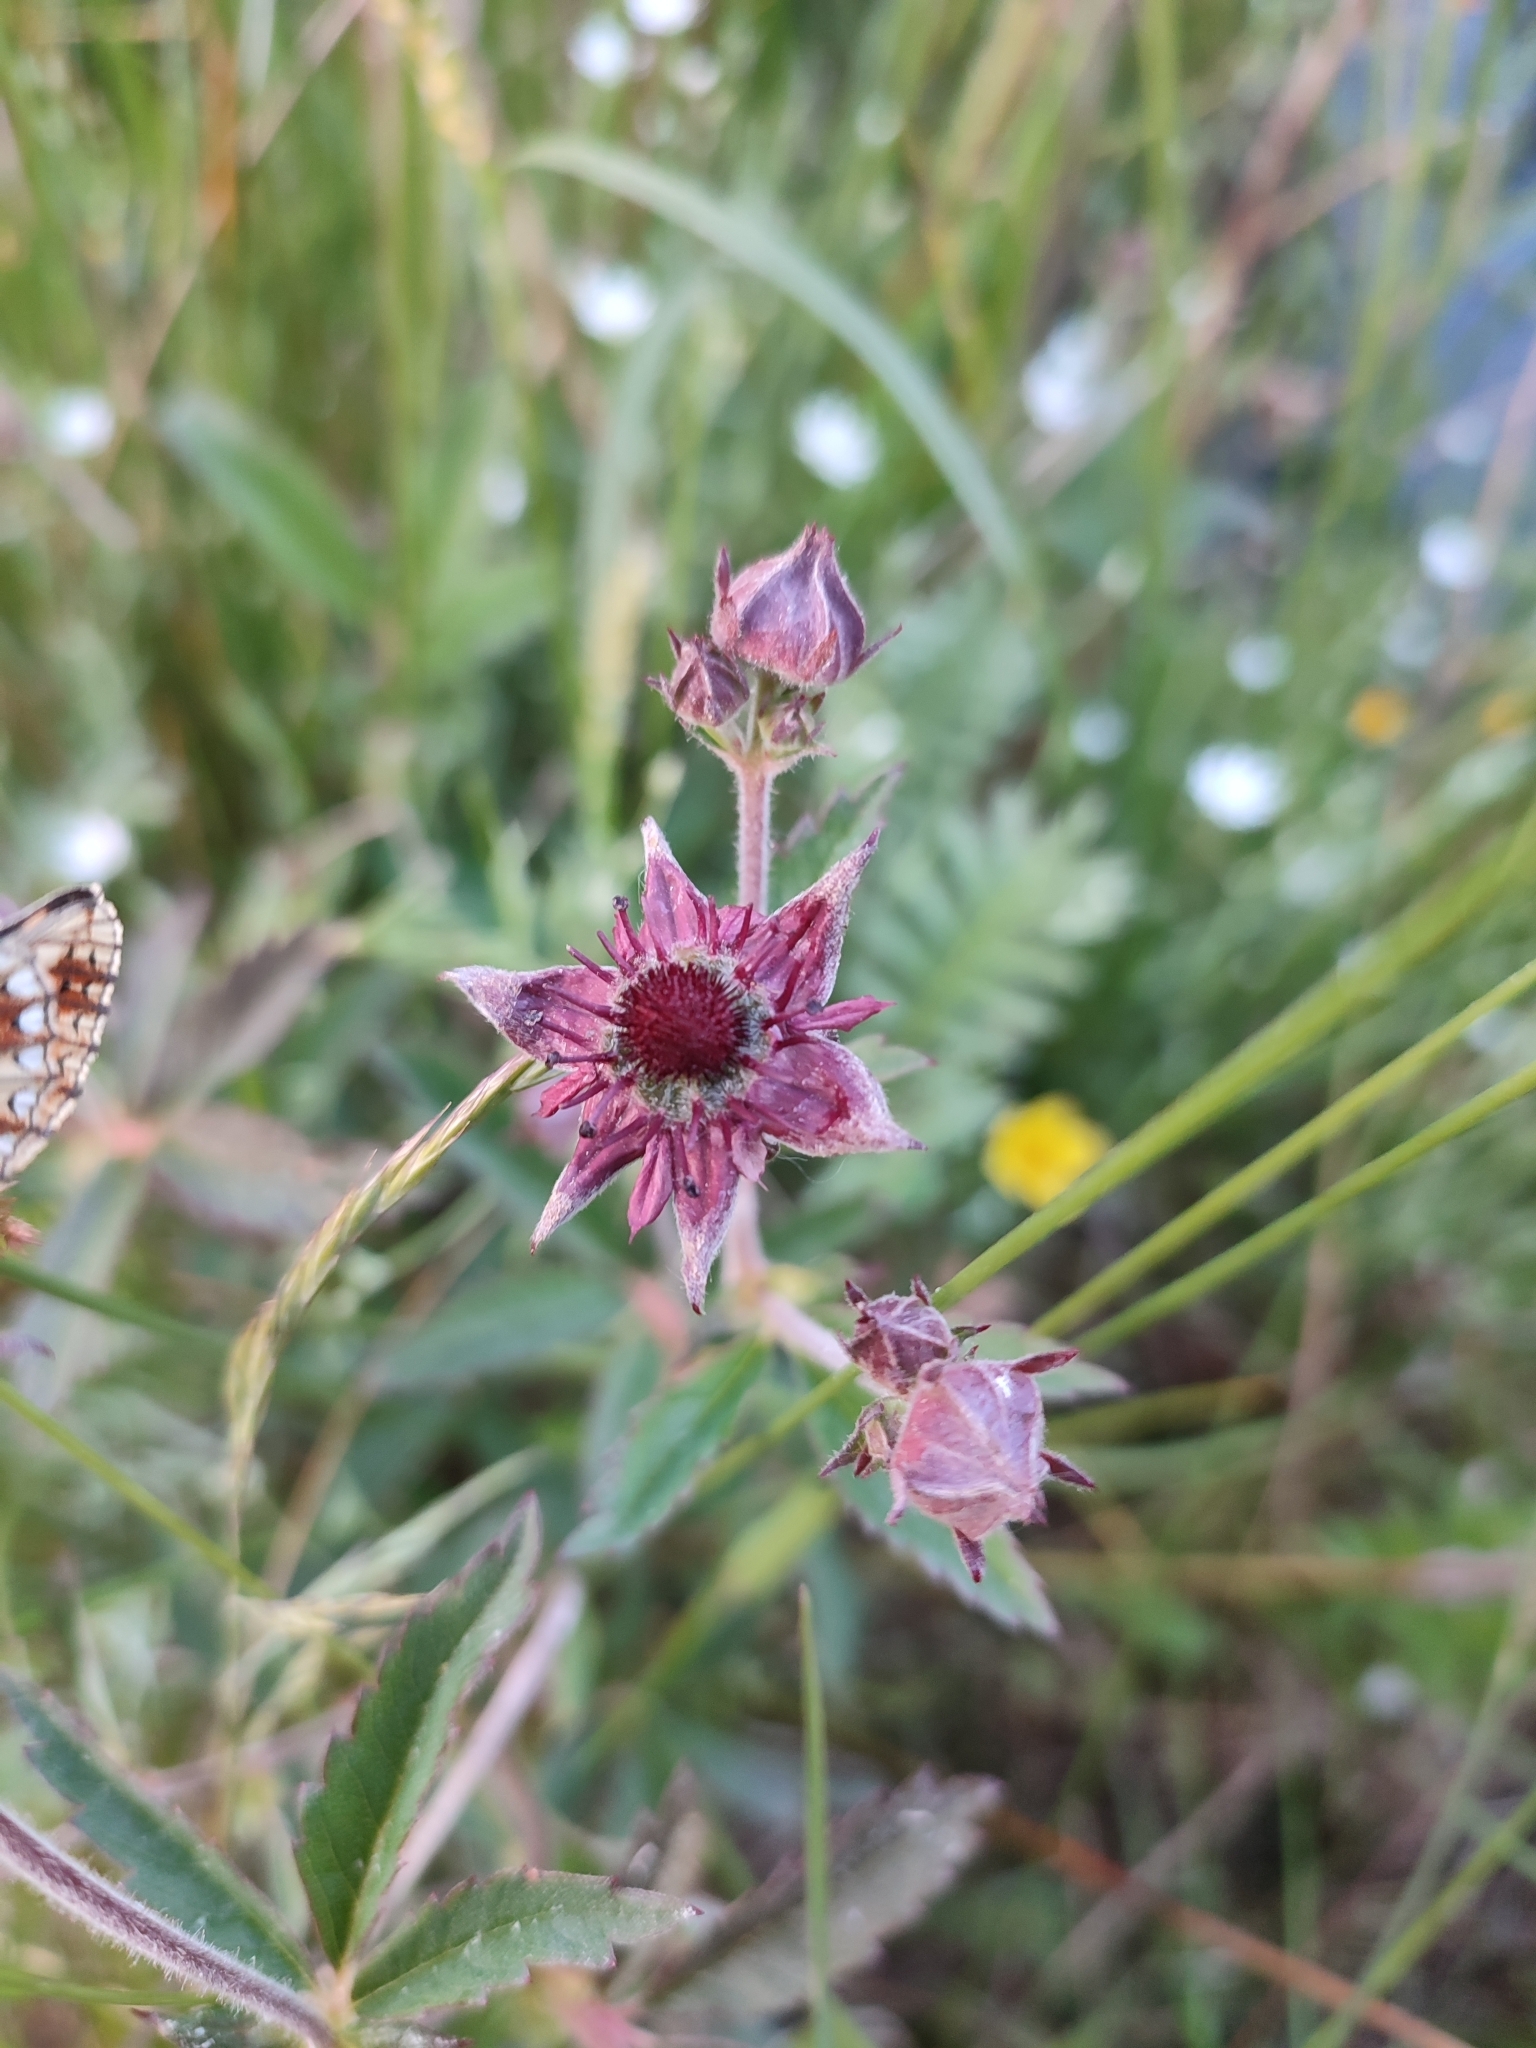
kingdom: Plantae
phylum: Tracheophyta
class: Magnoliopsida
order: Rosales
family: Rosaceae
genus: Comarum
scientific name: Comarum palustre
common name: Marsh cinquefoil
